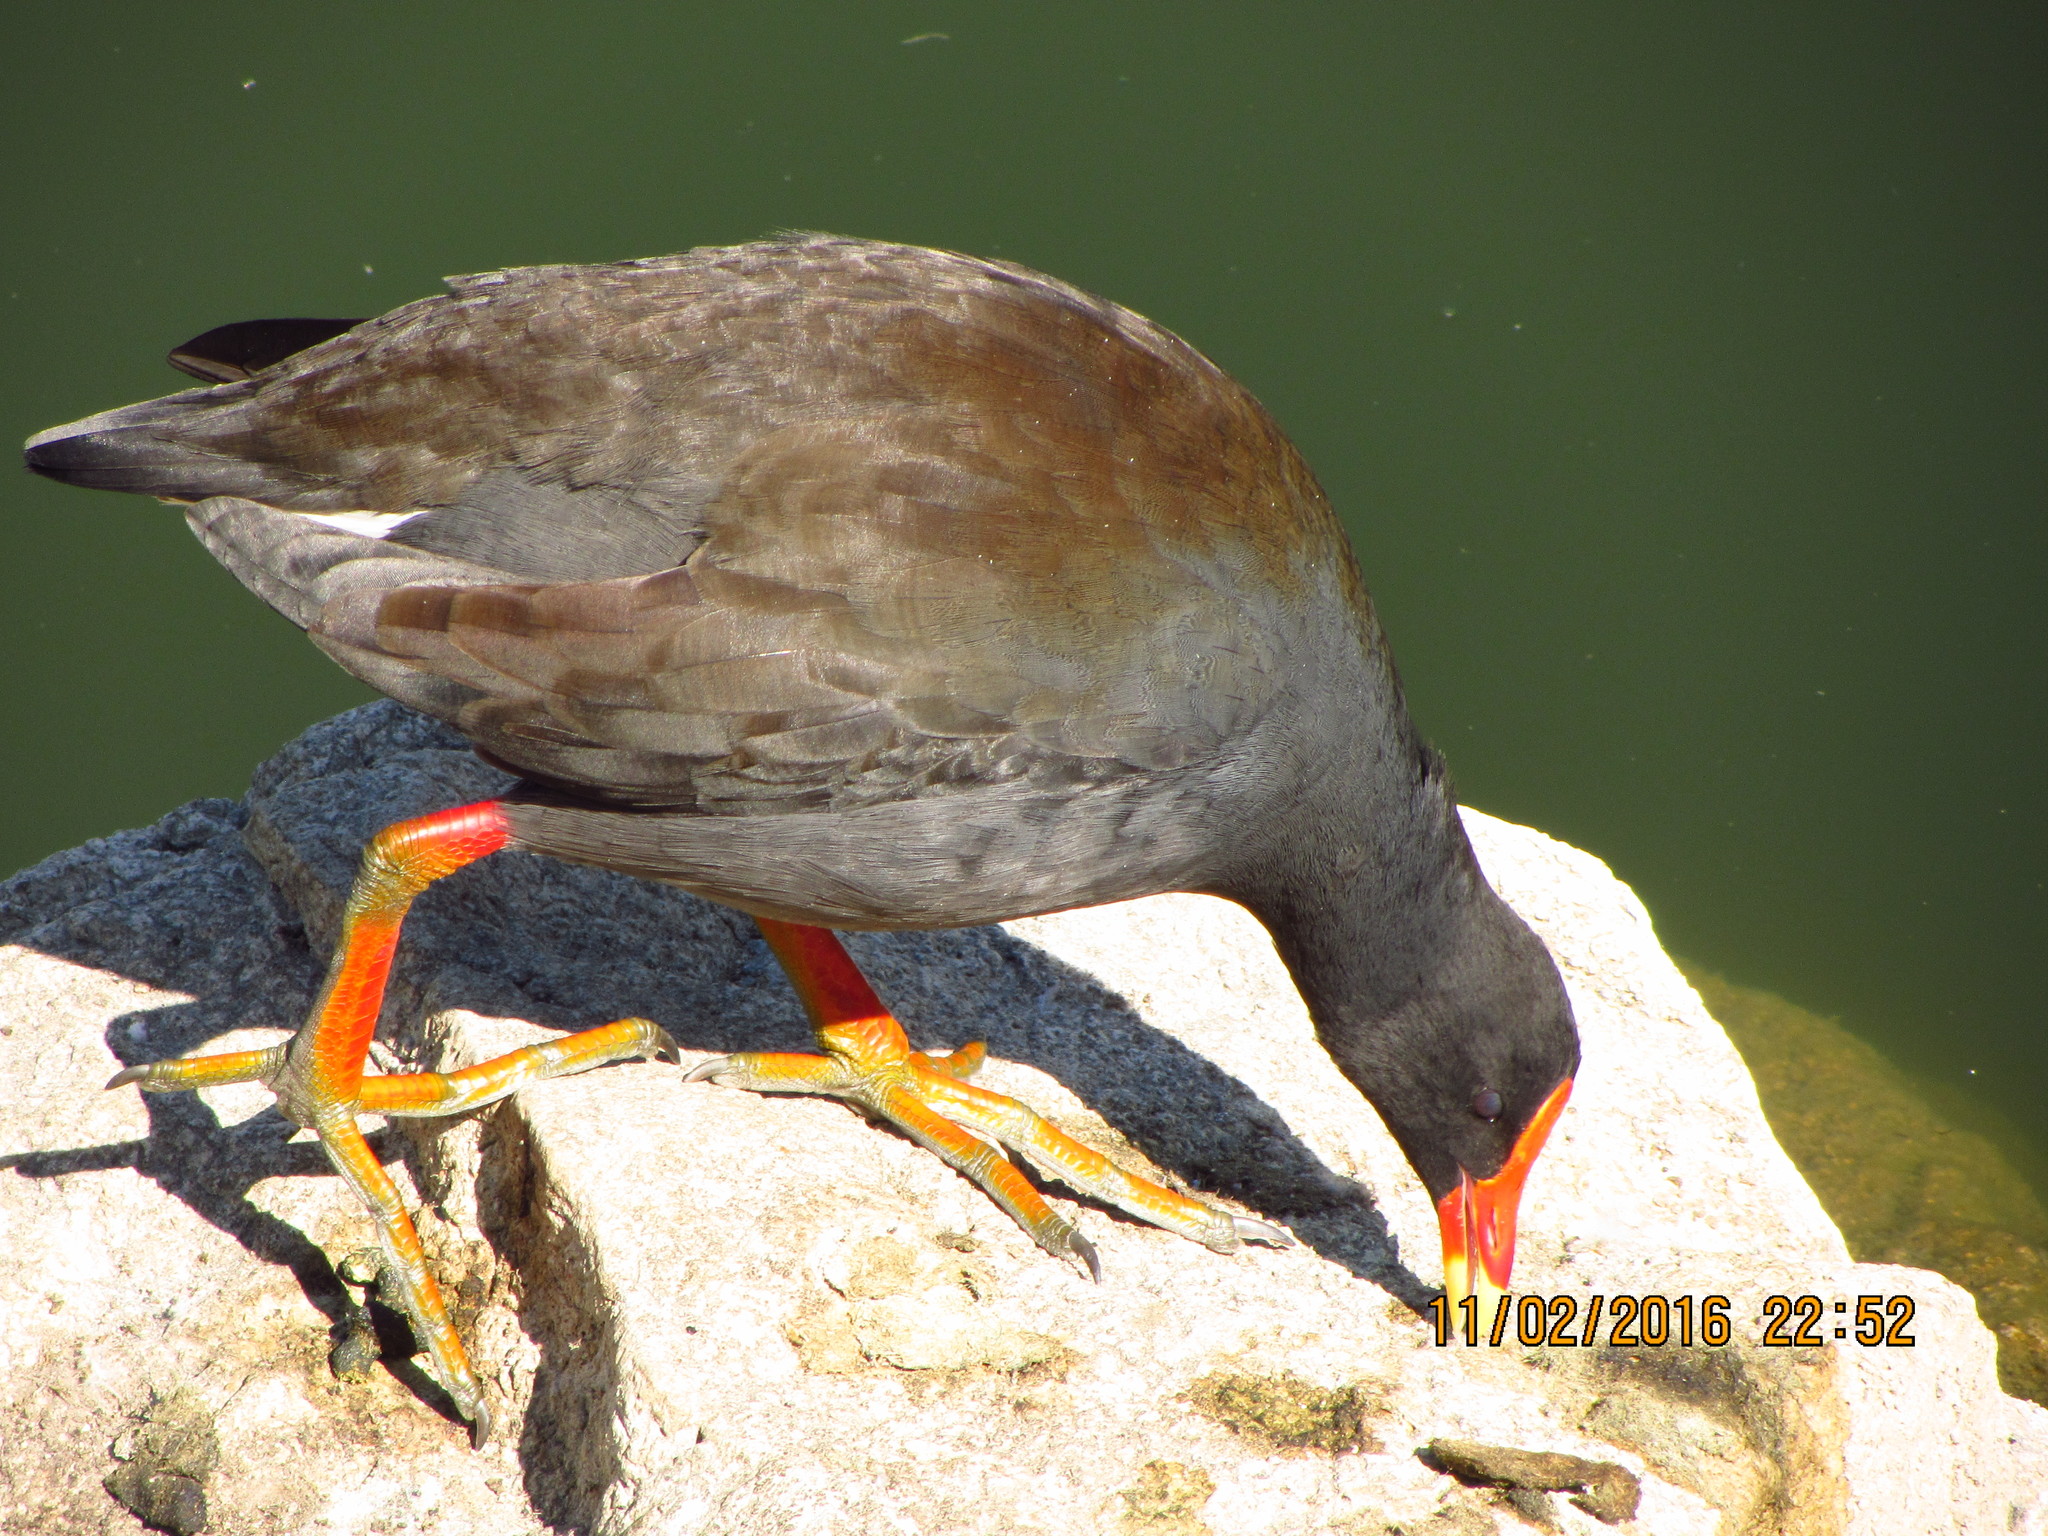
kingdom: Animalia
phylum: Chordata
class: Aves
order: Gruiformes
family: Rallidae
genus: Gallinula
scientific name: Gallinula tenebrosa
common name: Dusky moorhen
